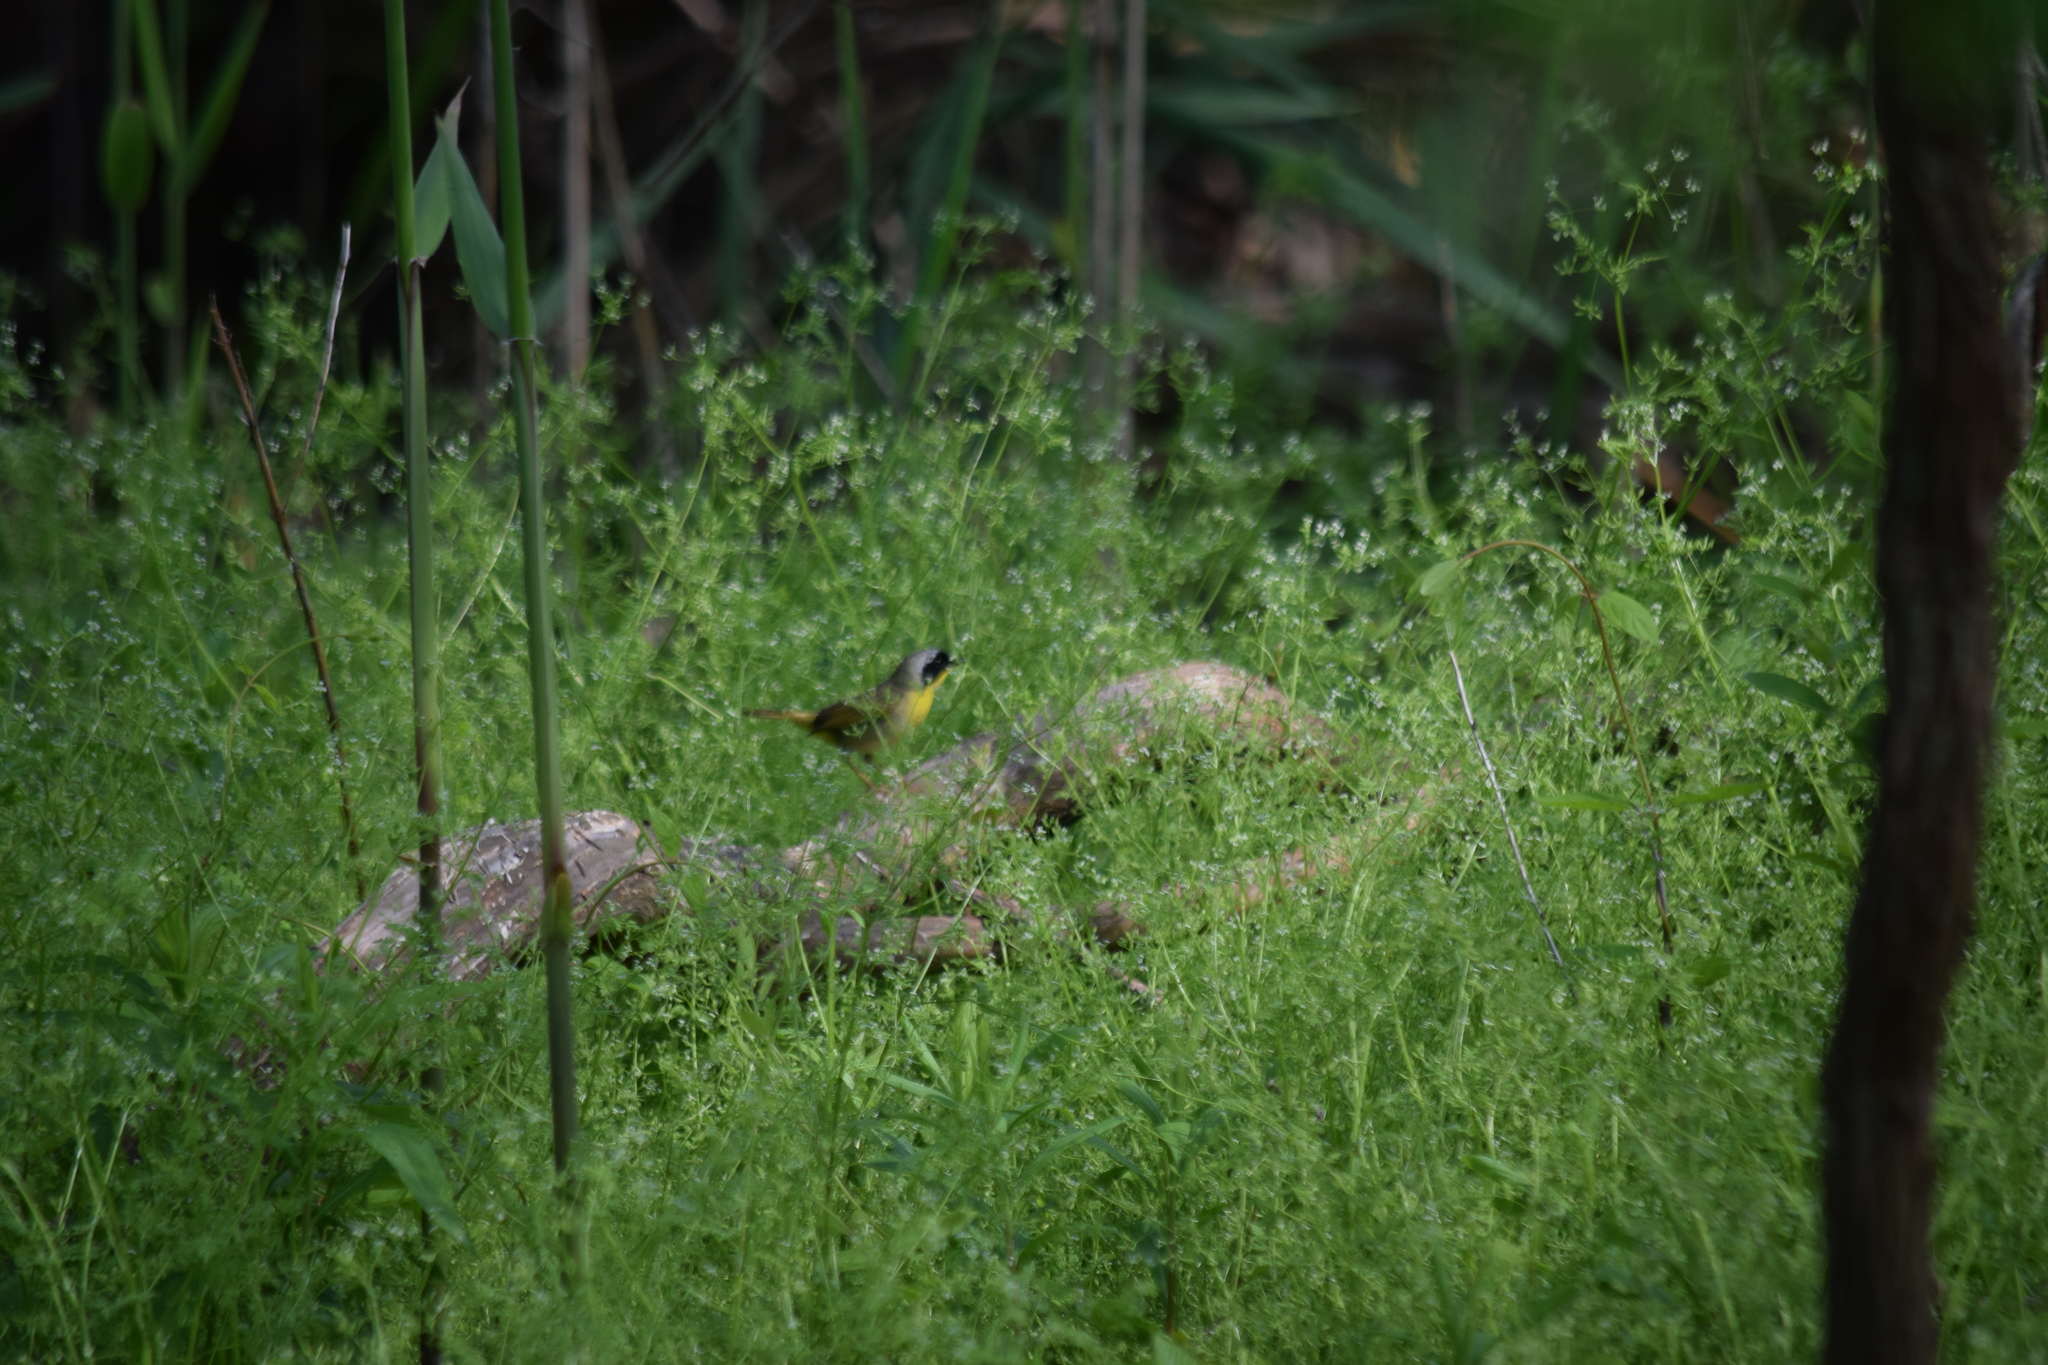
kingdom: Animalia
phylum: Chordata
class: Aves
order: Passeriformes
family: Parulidae
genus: Geothlypis
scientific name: Geothlypis trichas
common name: Common yellowthroat
